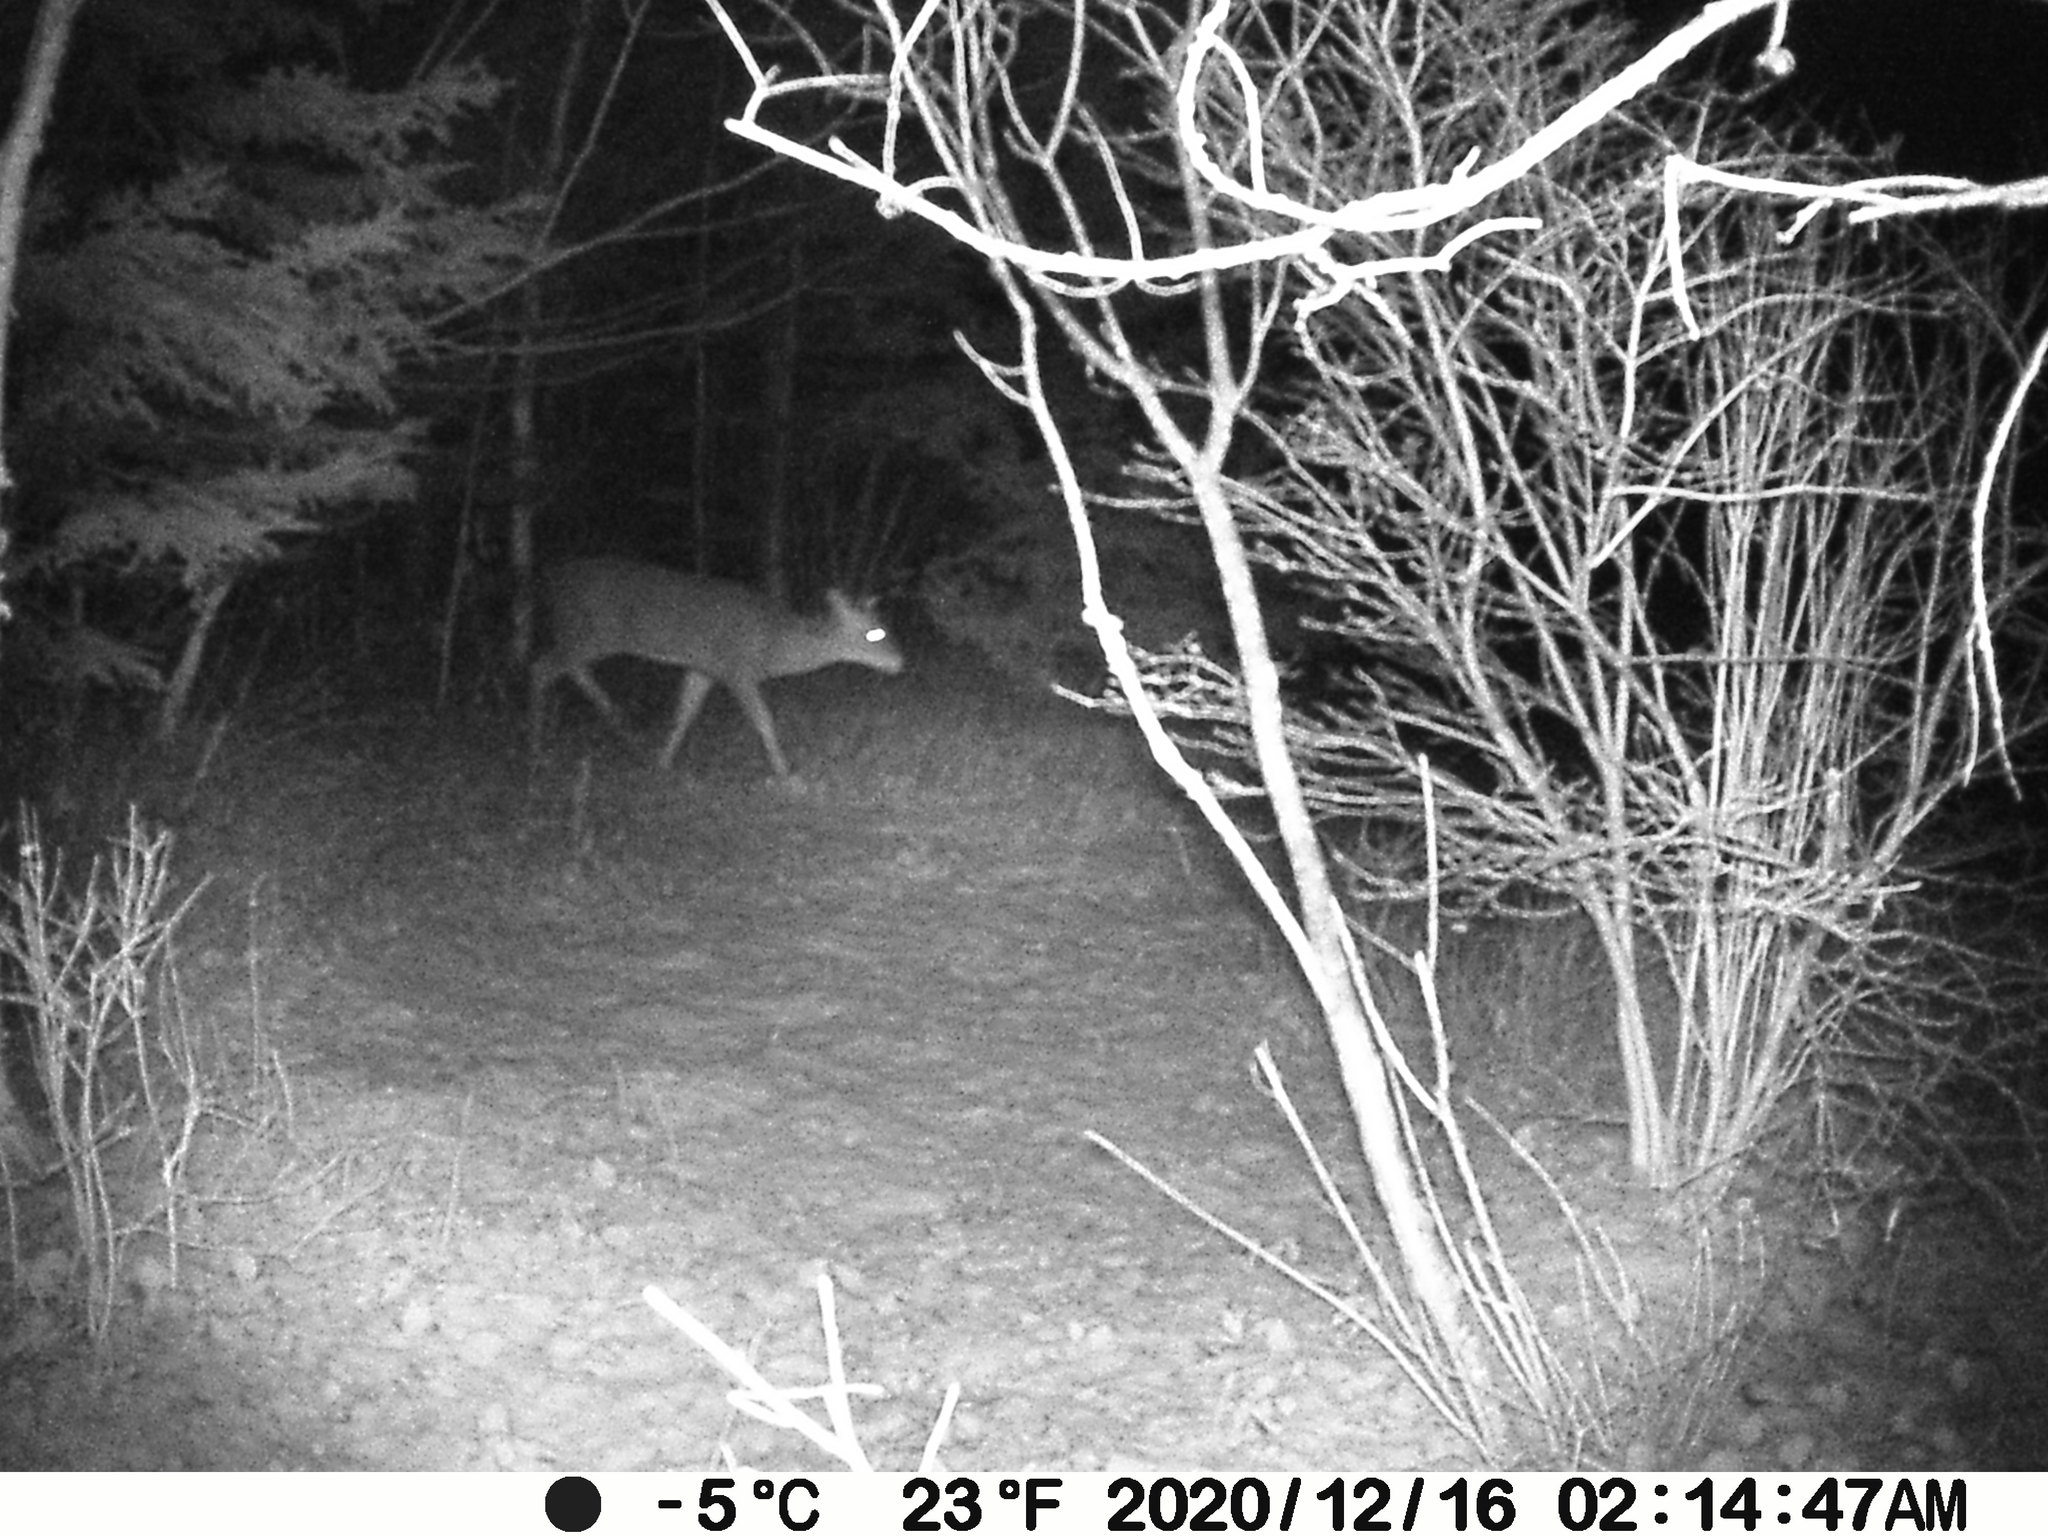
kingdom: Animalia
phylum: Chordata
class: Mammalia
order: Artiodactyla
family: Cervidae
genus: Odocoileus
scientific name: Odocoileus virginianus
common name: White-tailed deer
